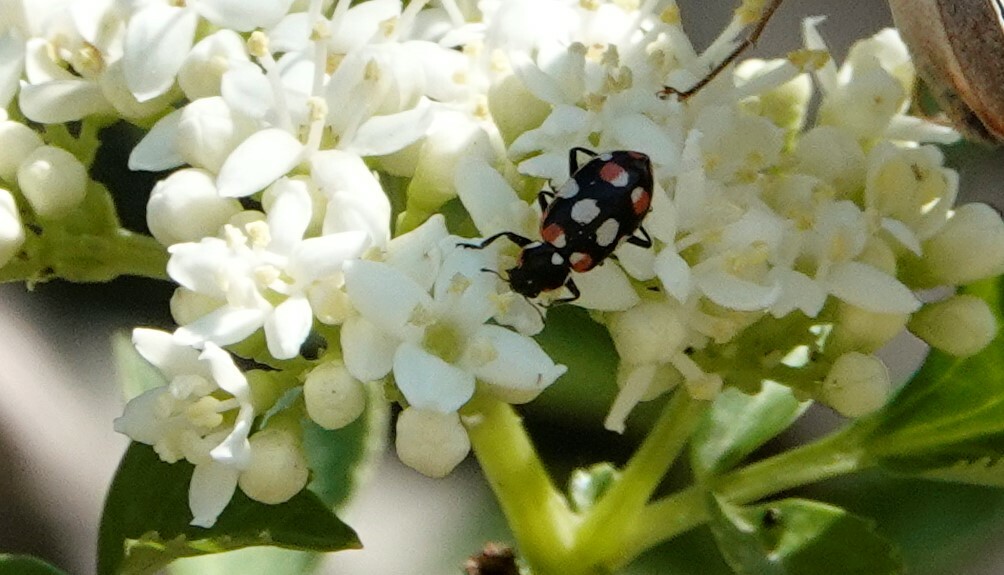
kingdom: Animalia
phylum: Arthropoda
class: Insecta
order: Coleoptera
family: Coccinellidae
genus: Eriopis
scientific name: Eriopis connexa
